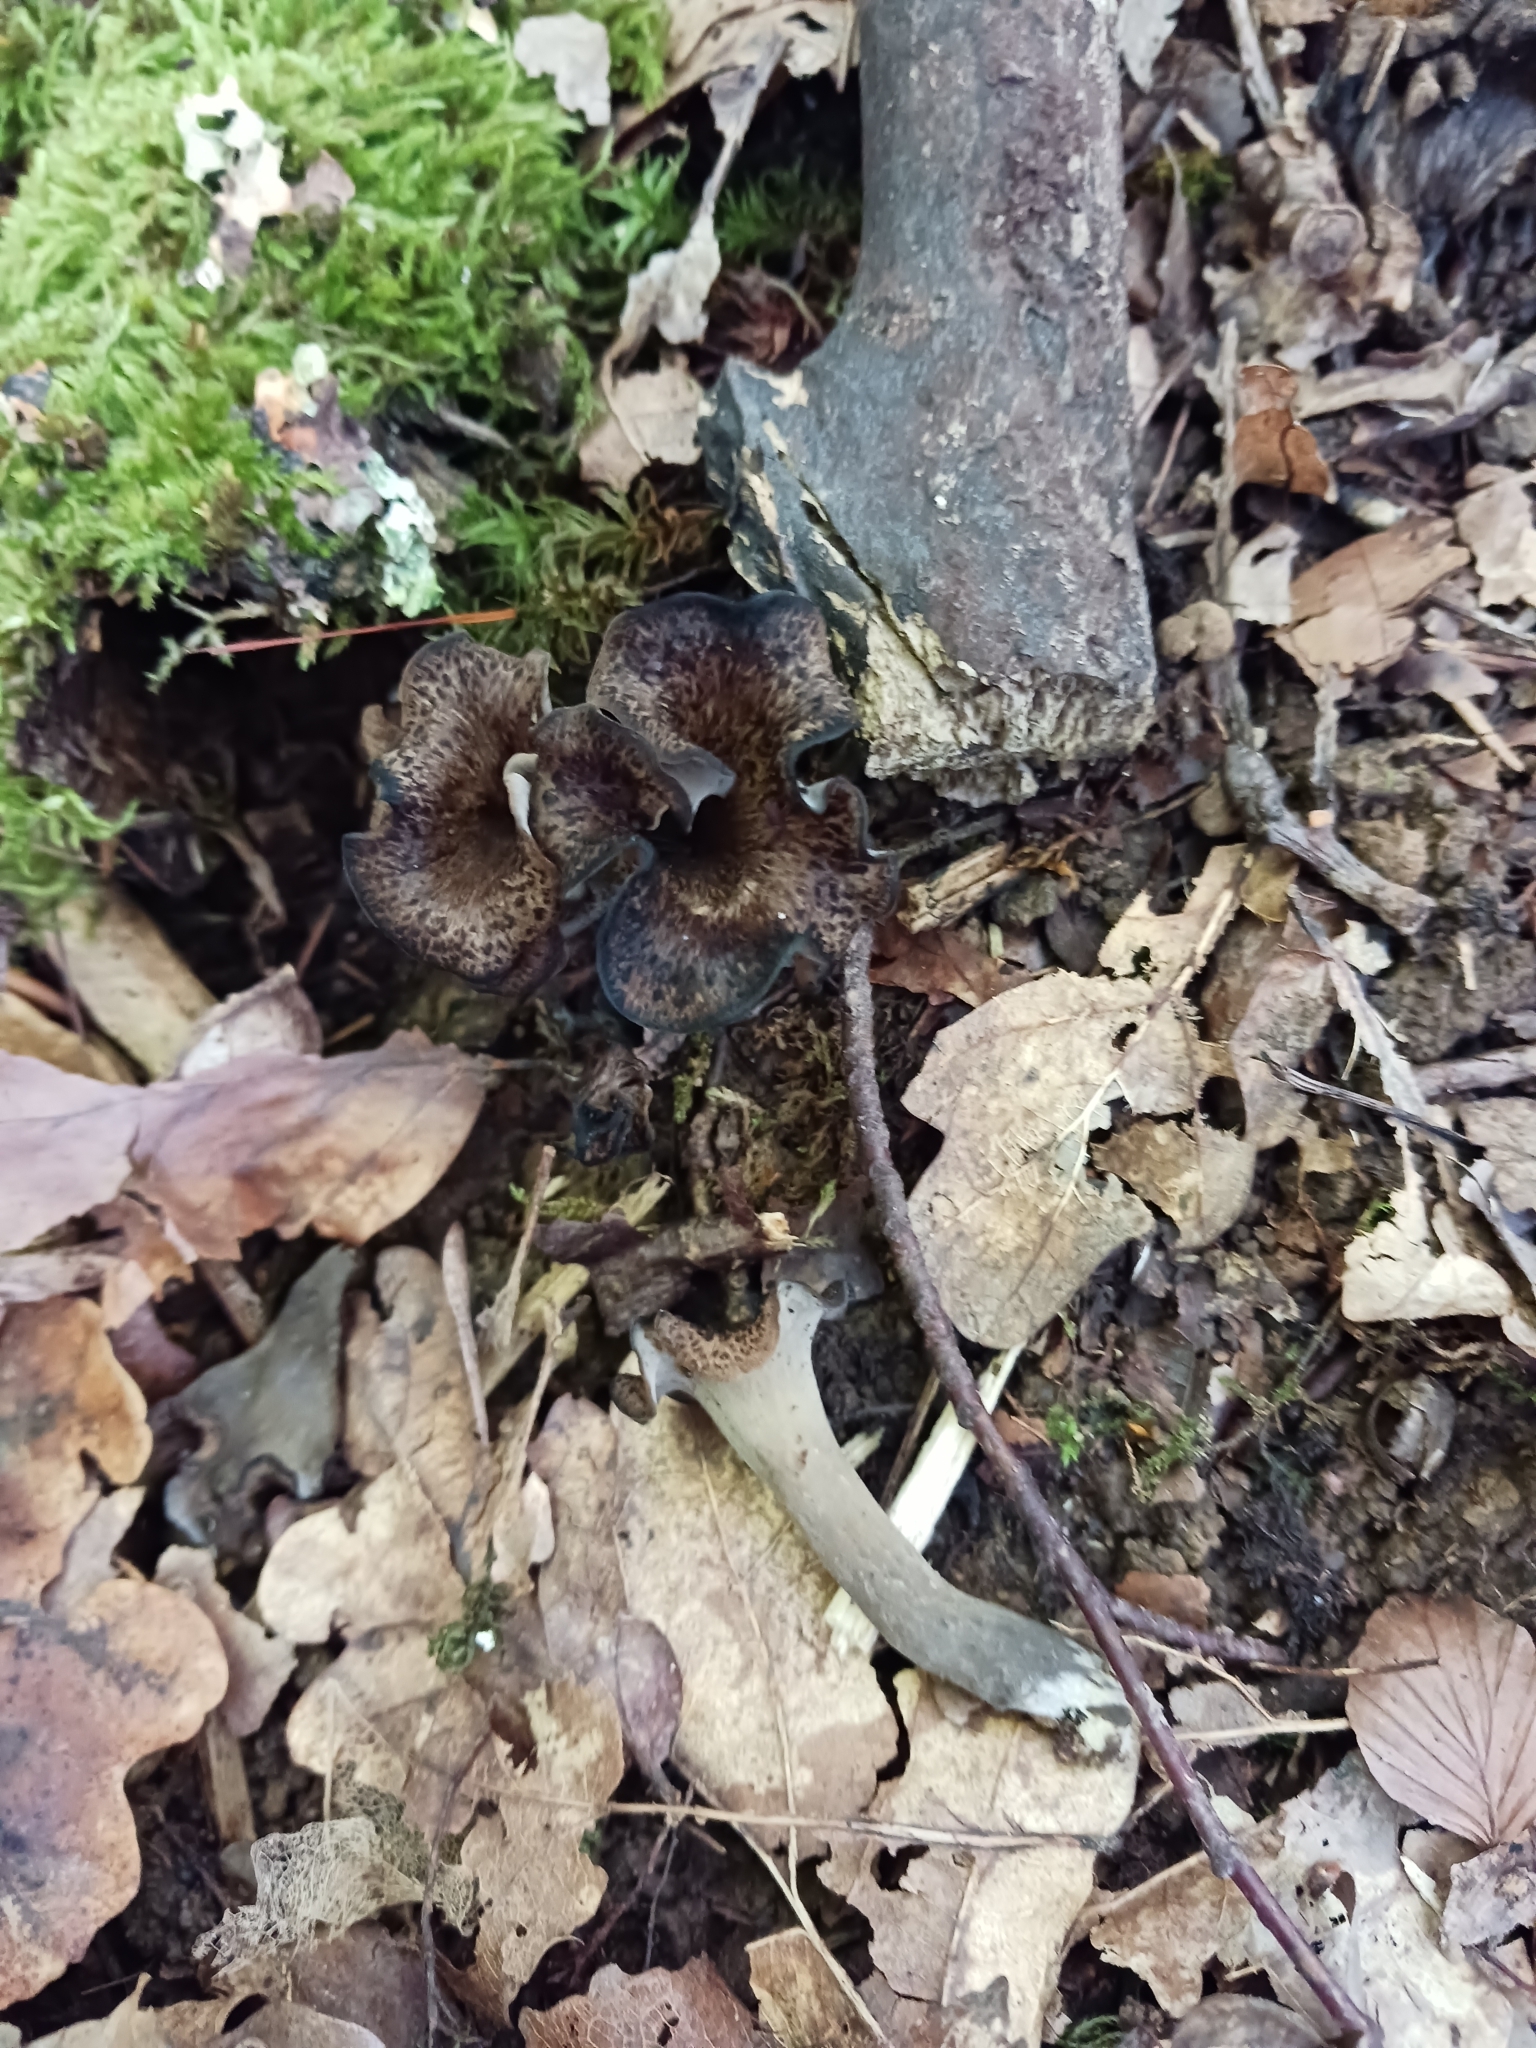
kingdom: Fungi
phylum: Basidiomycota
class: Agaricomycetes
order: Cantharellales
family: Hydnaceae
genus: Craterellus
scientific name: Craterellus cornucopioides
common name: Horn of plenty
